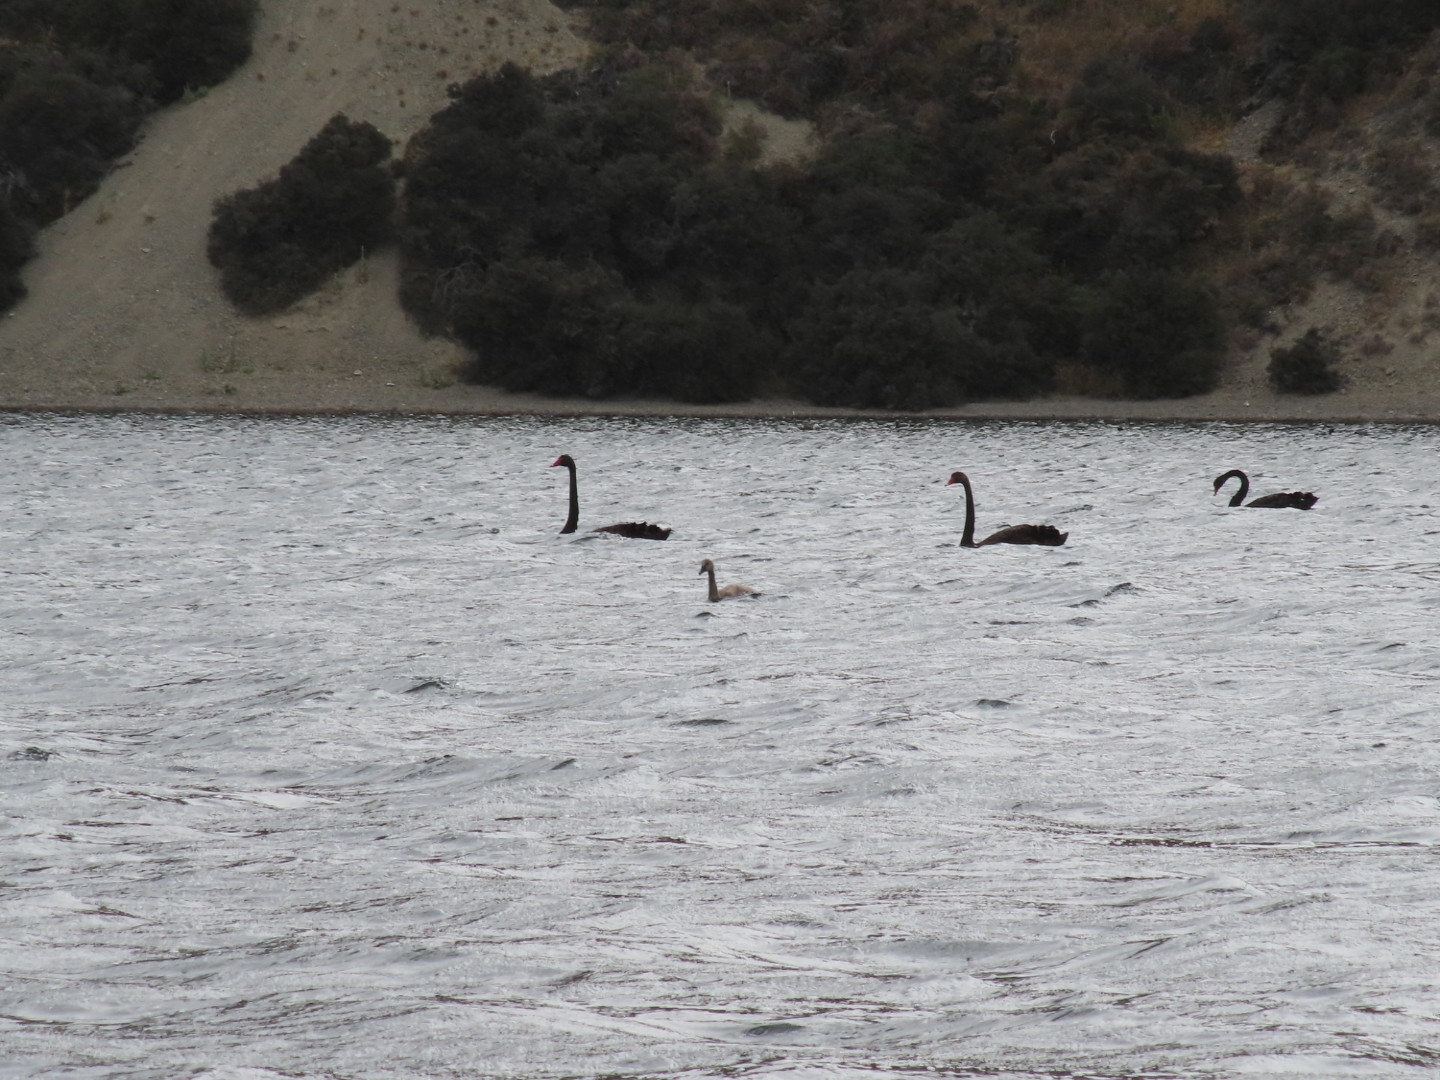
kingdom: Animalia
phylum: Chordata
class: Aves
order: Anseriformes
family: Anatidae
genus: Cygnus
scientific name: Cygnus atratus
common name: Black swan
